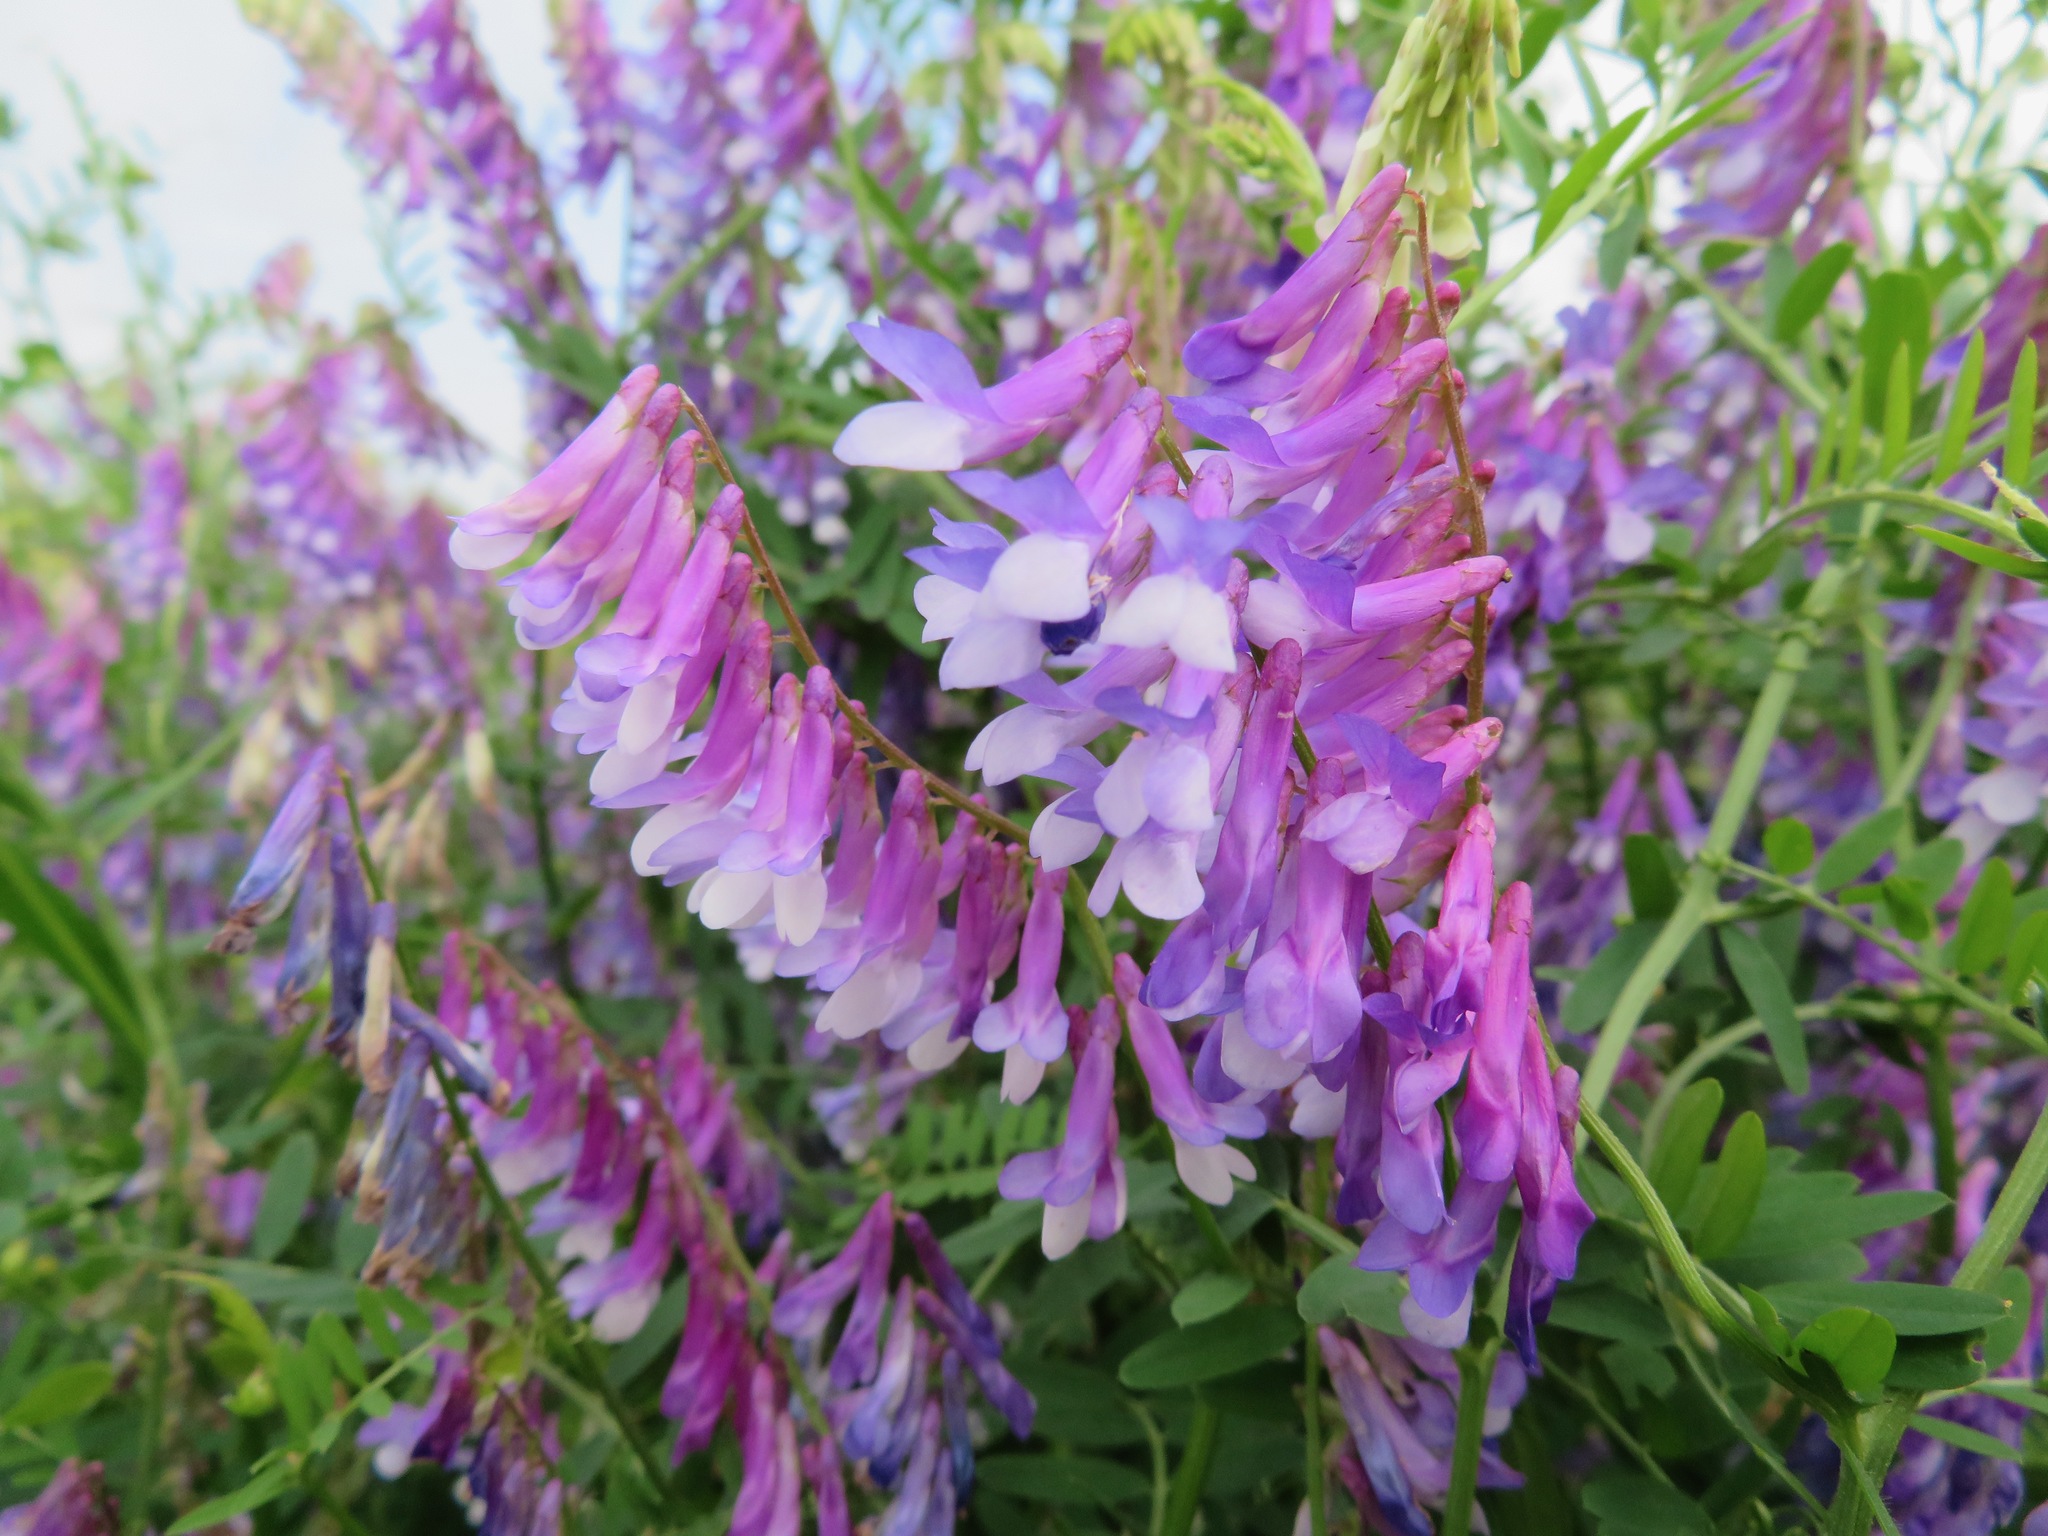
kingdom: Plantae
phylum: Tracheophyta
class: Magnoliopsida
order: Fabales
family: Fabaceae
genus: Vicia
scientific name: Vicia villosa
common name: Fodder vetch
